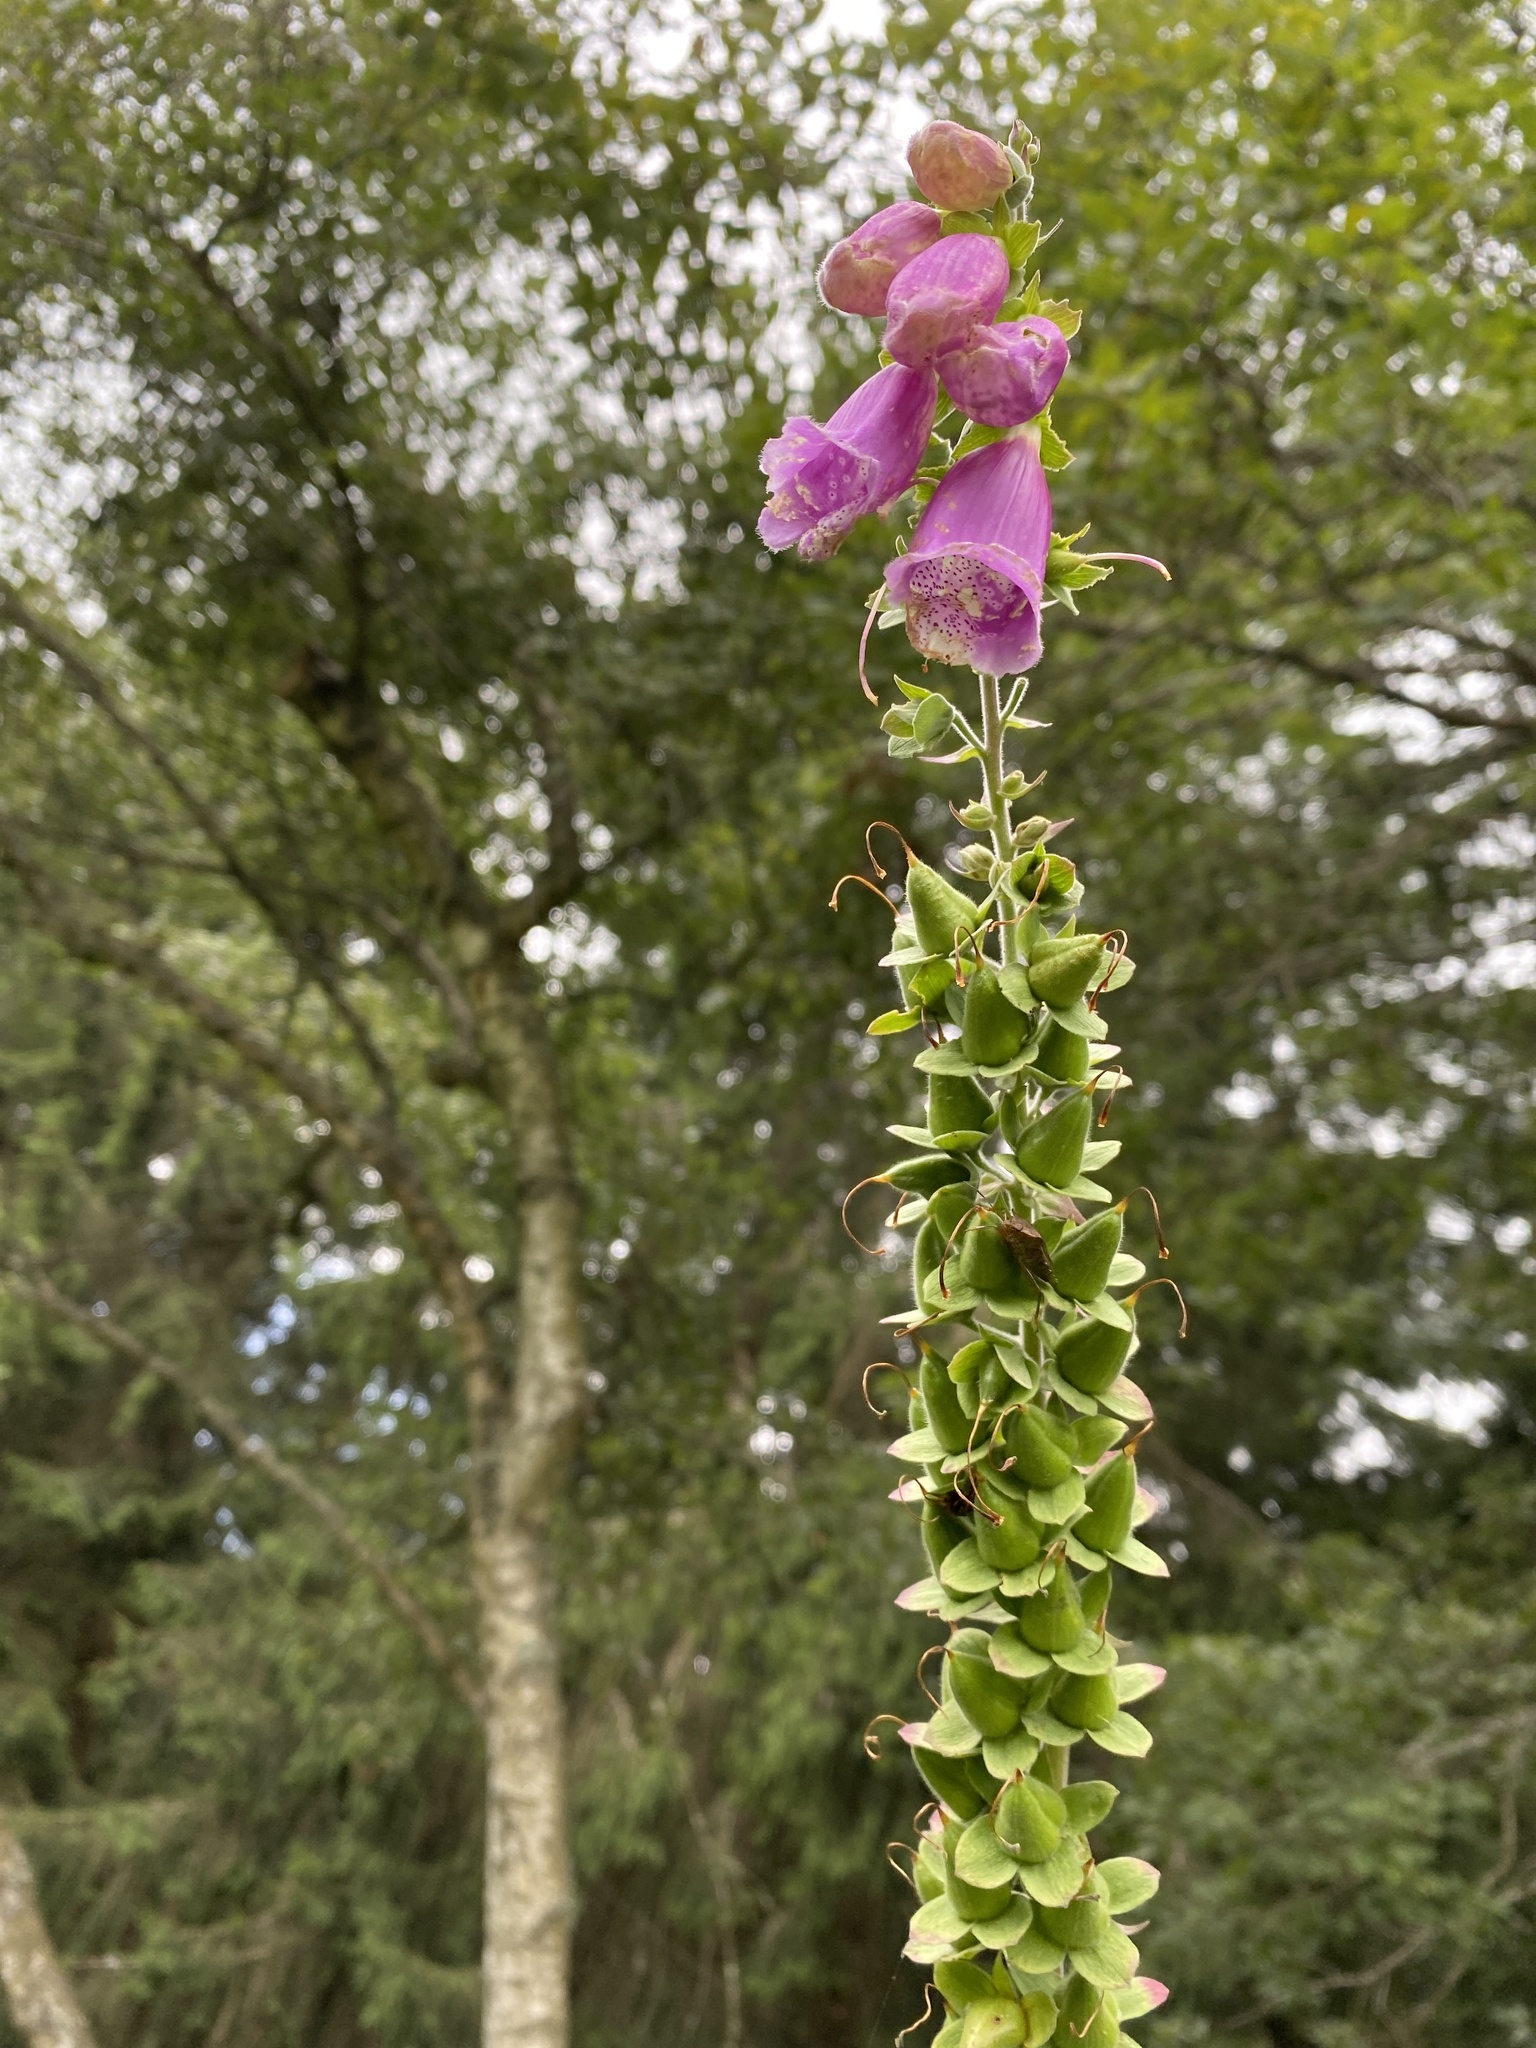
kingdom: Plantae
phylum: Tracheophyta
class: Magnoliopsida
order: Lamiales
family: Plantaginaceae
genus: Digitalis
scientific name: Digitalis purpurea
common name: Foxglove
